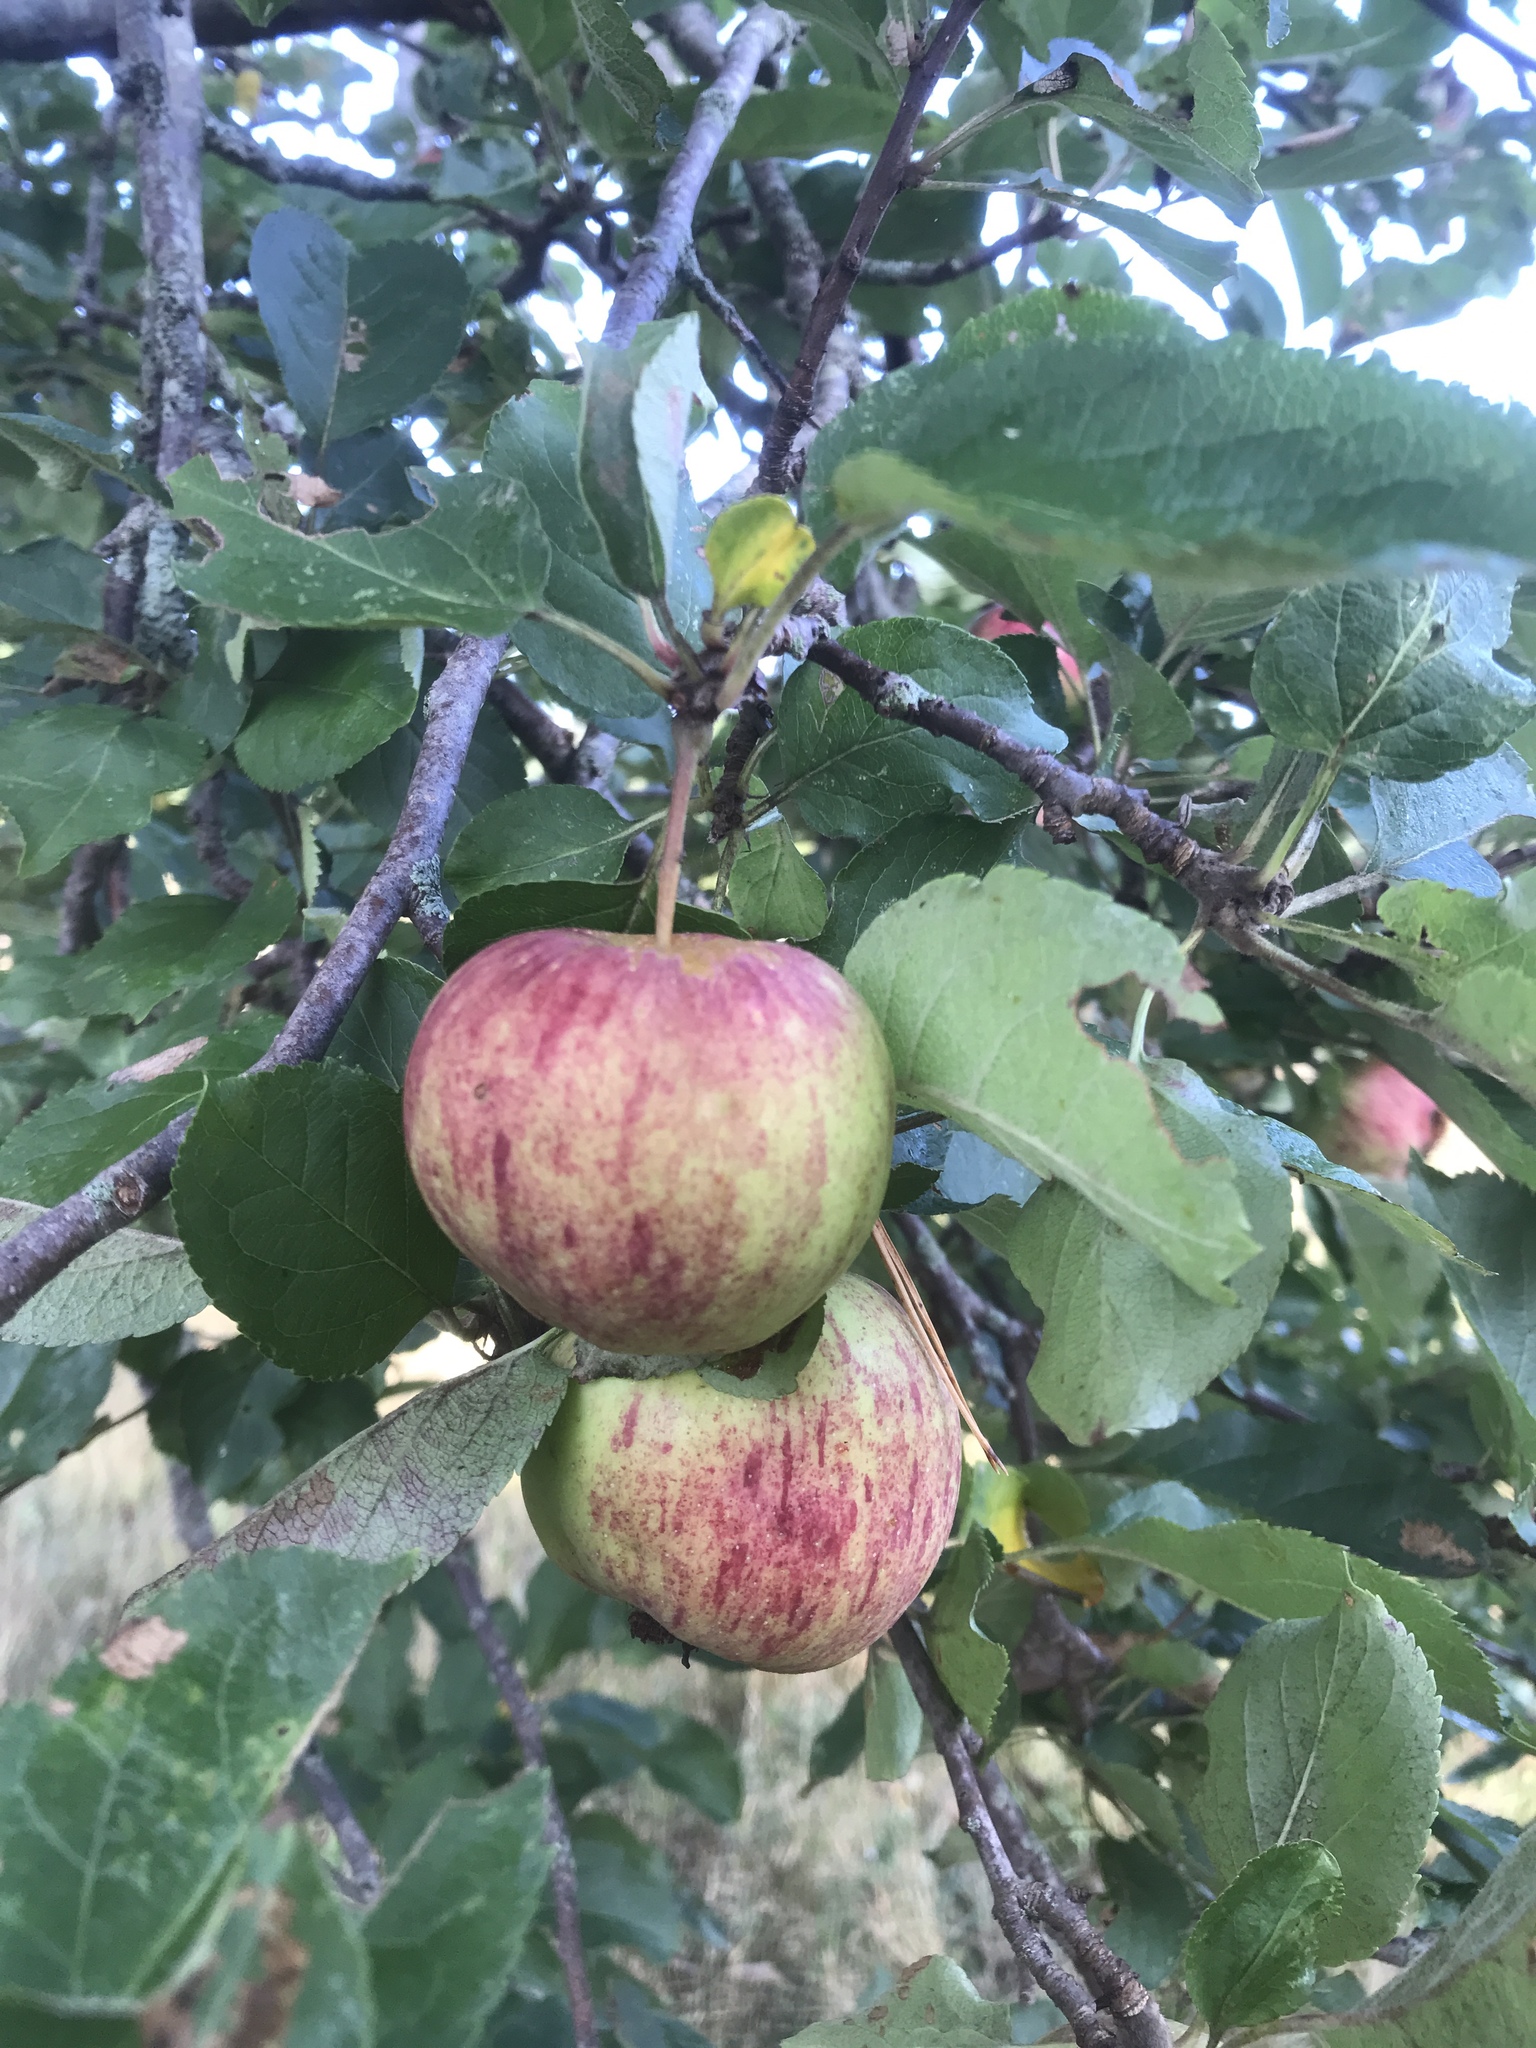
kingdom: Plantae
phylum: Tracheophyta
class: Magnoliopsida
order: Rosales
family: Rosaceae
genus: Malus
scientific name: Malus domestica
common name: Apple
